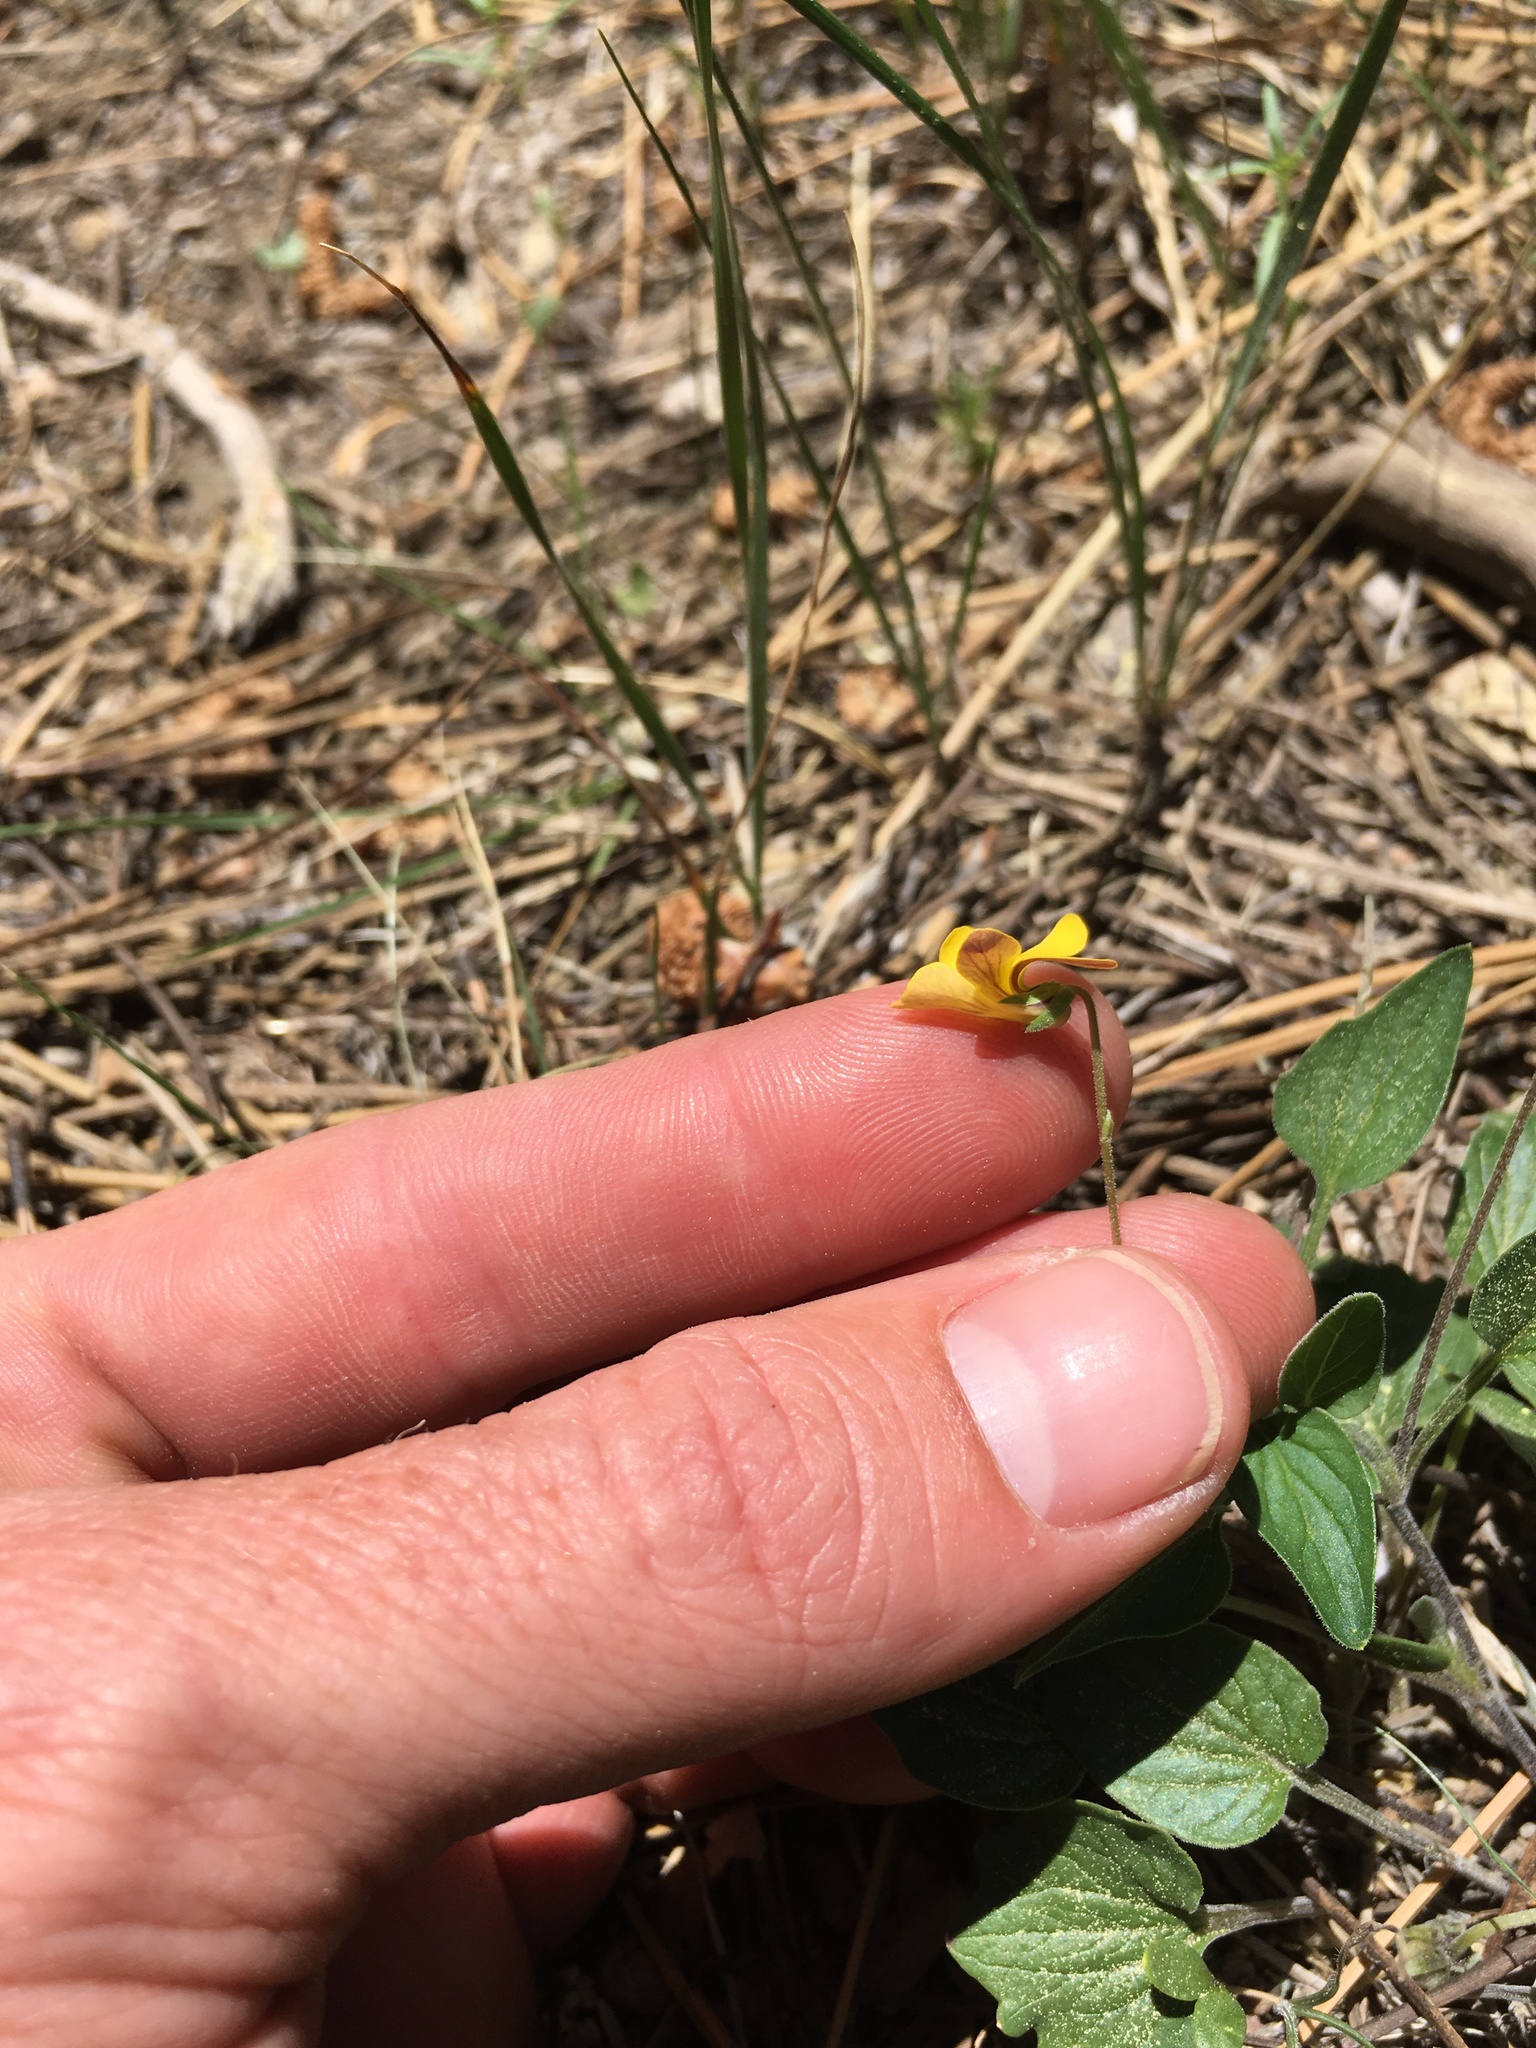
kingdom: Plantae
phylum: Tracheophyta
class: Magnoliopsida
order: Malpighiales
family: Violaceae
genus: Viola
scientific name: Viola purpurea
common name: Pine violet
